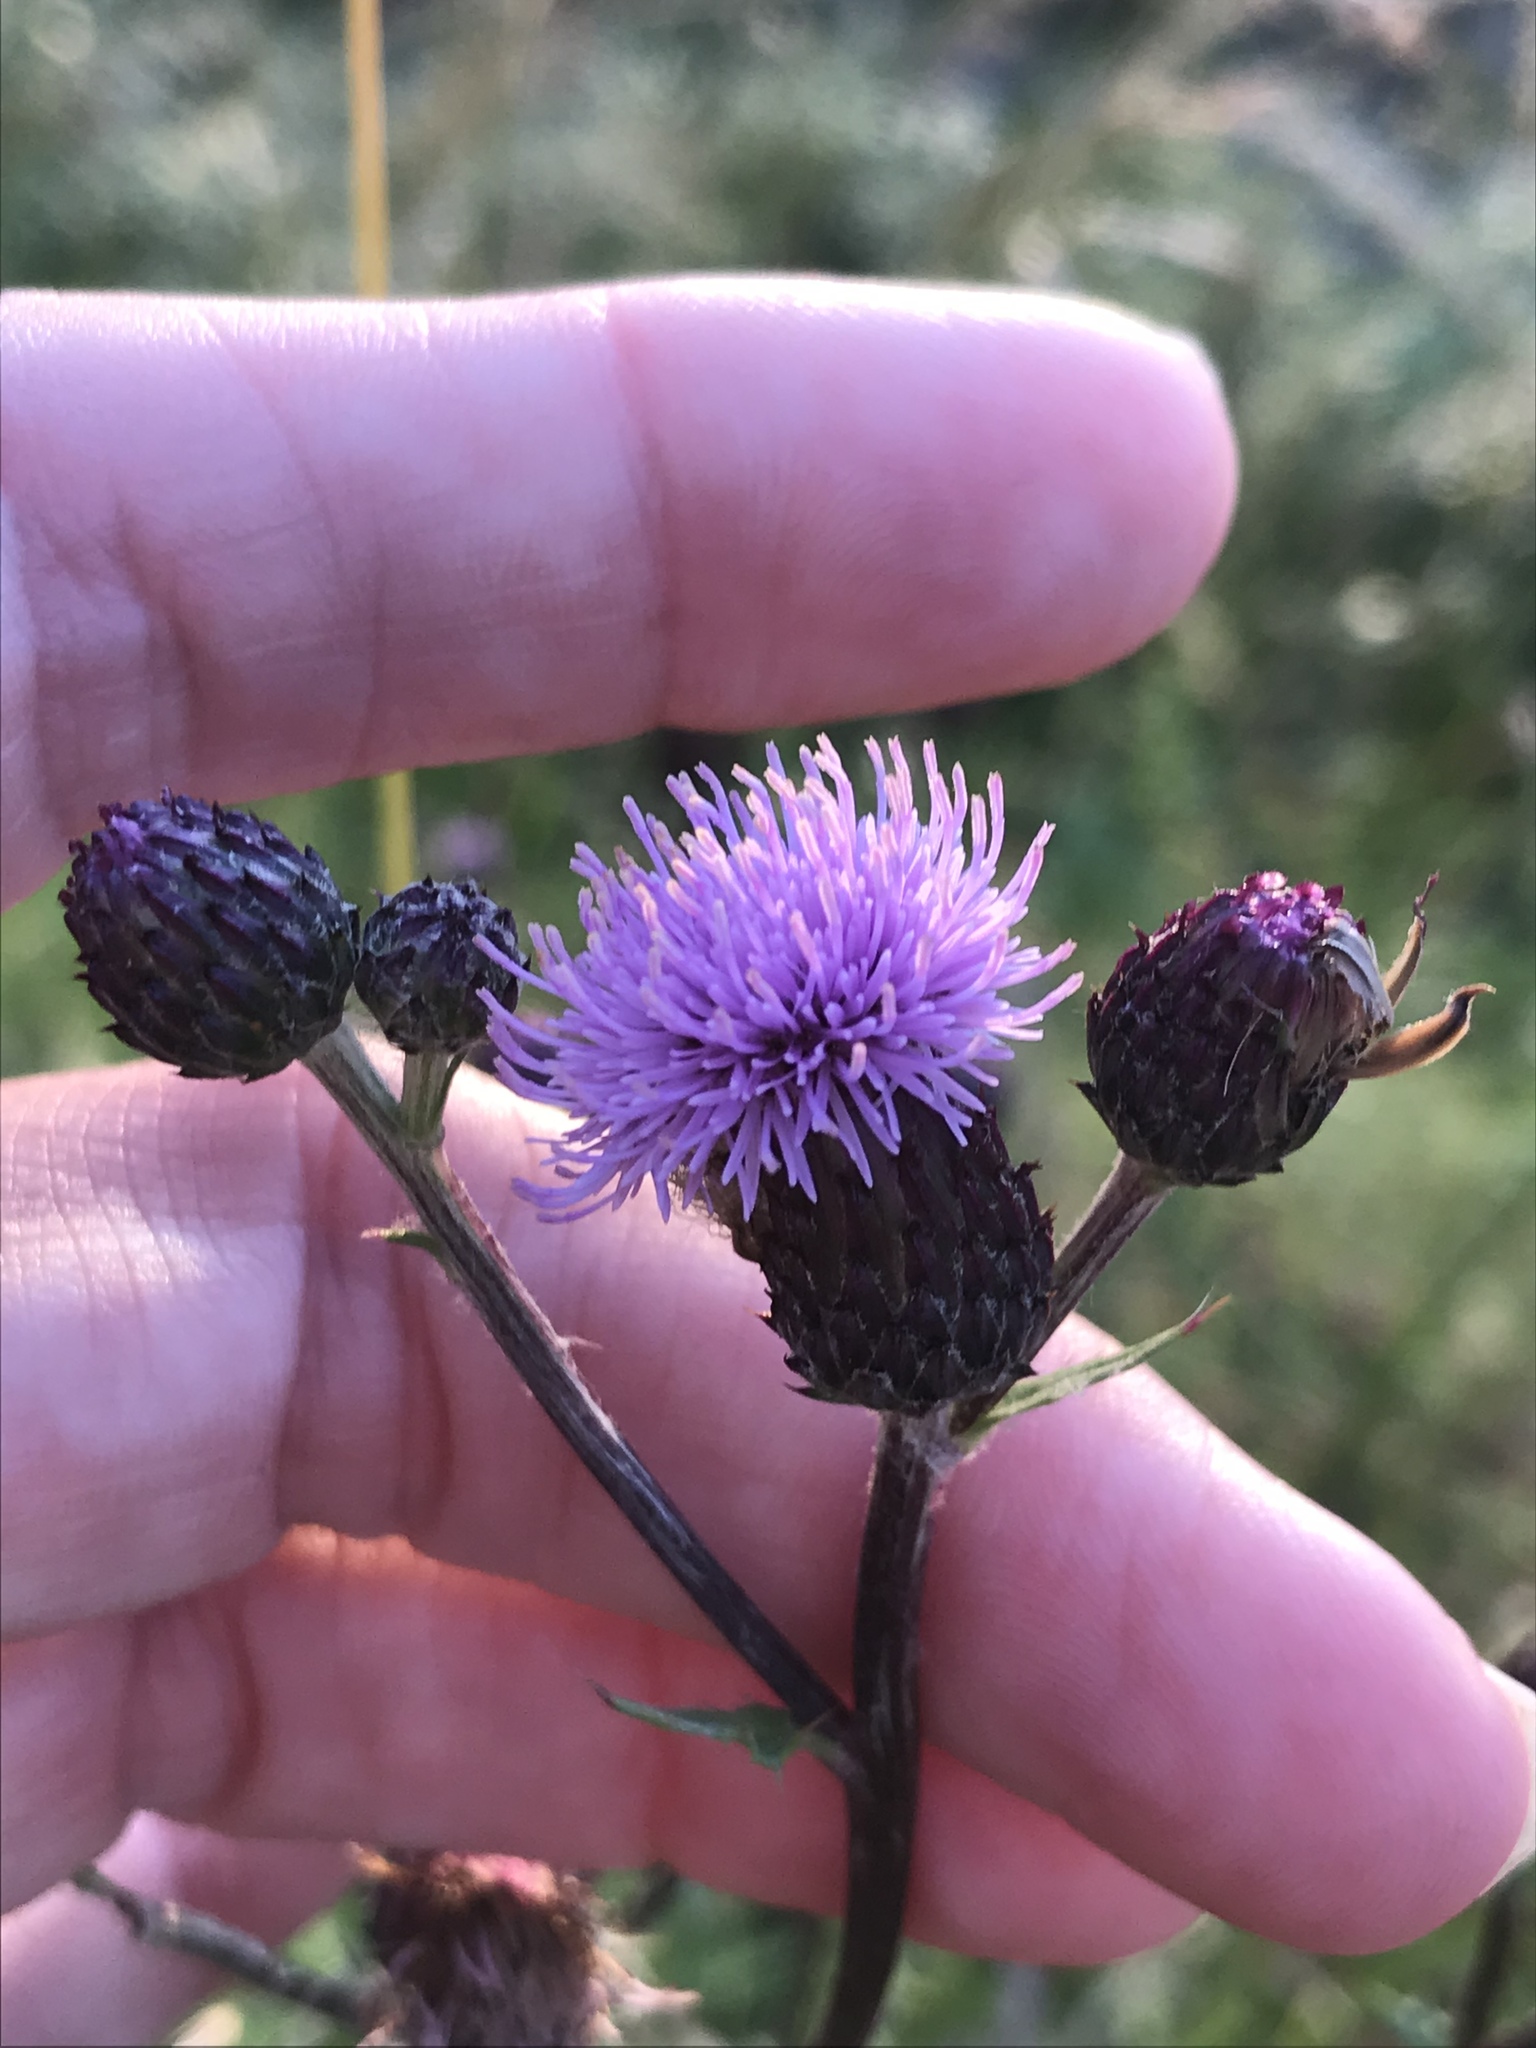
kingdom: Plantae
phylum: Tracheophyta
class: Magnoliopsida
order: Asterales
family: Asteraceae
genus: Cirsium
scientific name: Cirsium arvense
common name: Creeping thistle
